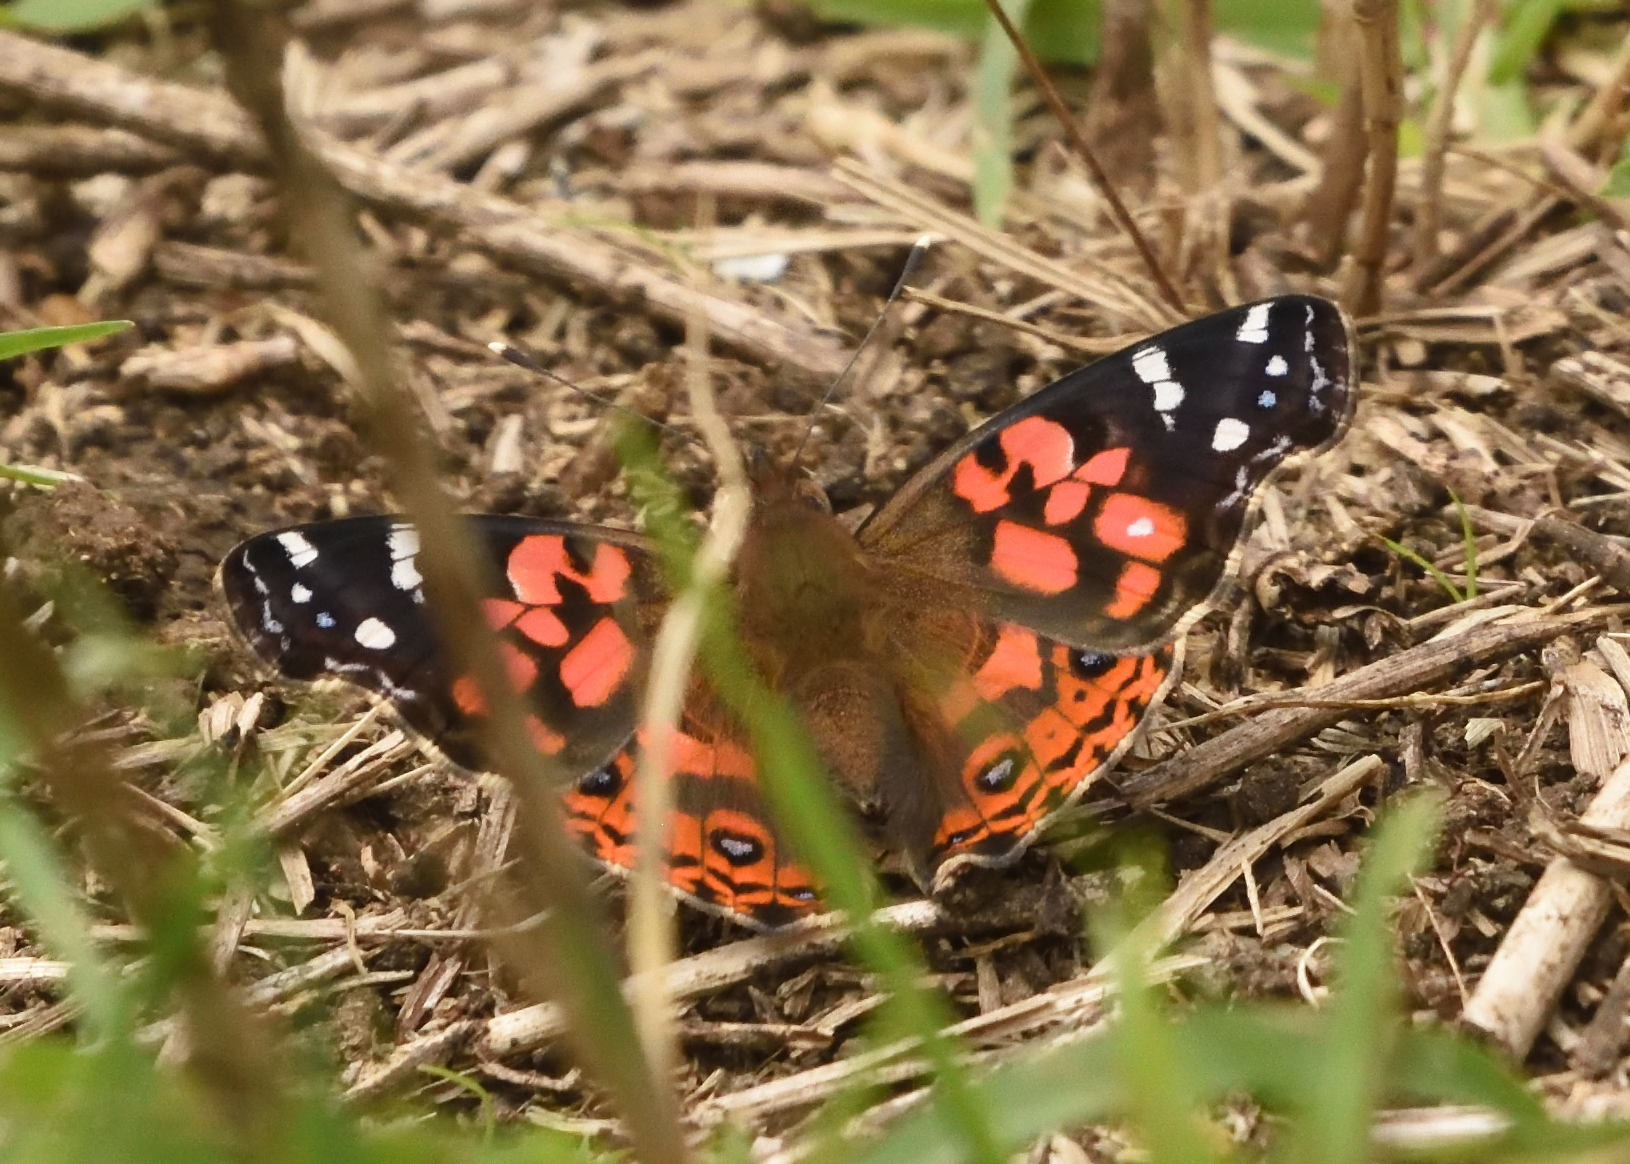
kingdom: Animalia
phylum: Arthropoda
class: Insecta
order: Lepidoptera
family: Nymphalidae
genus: Vanessa
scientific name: Vanessa braziliensis
